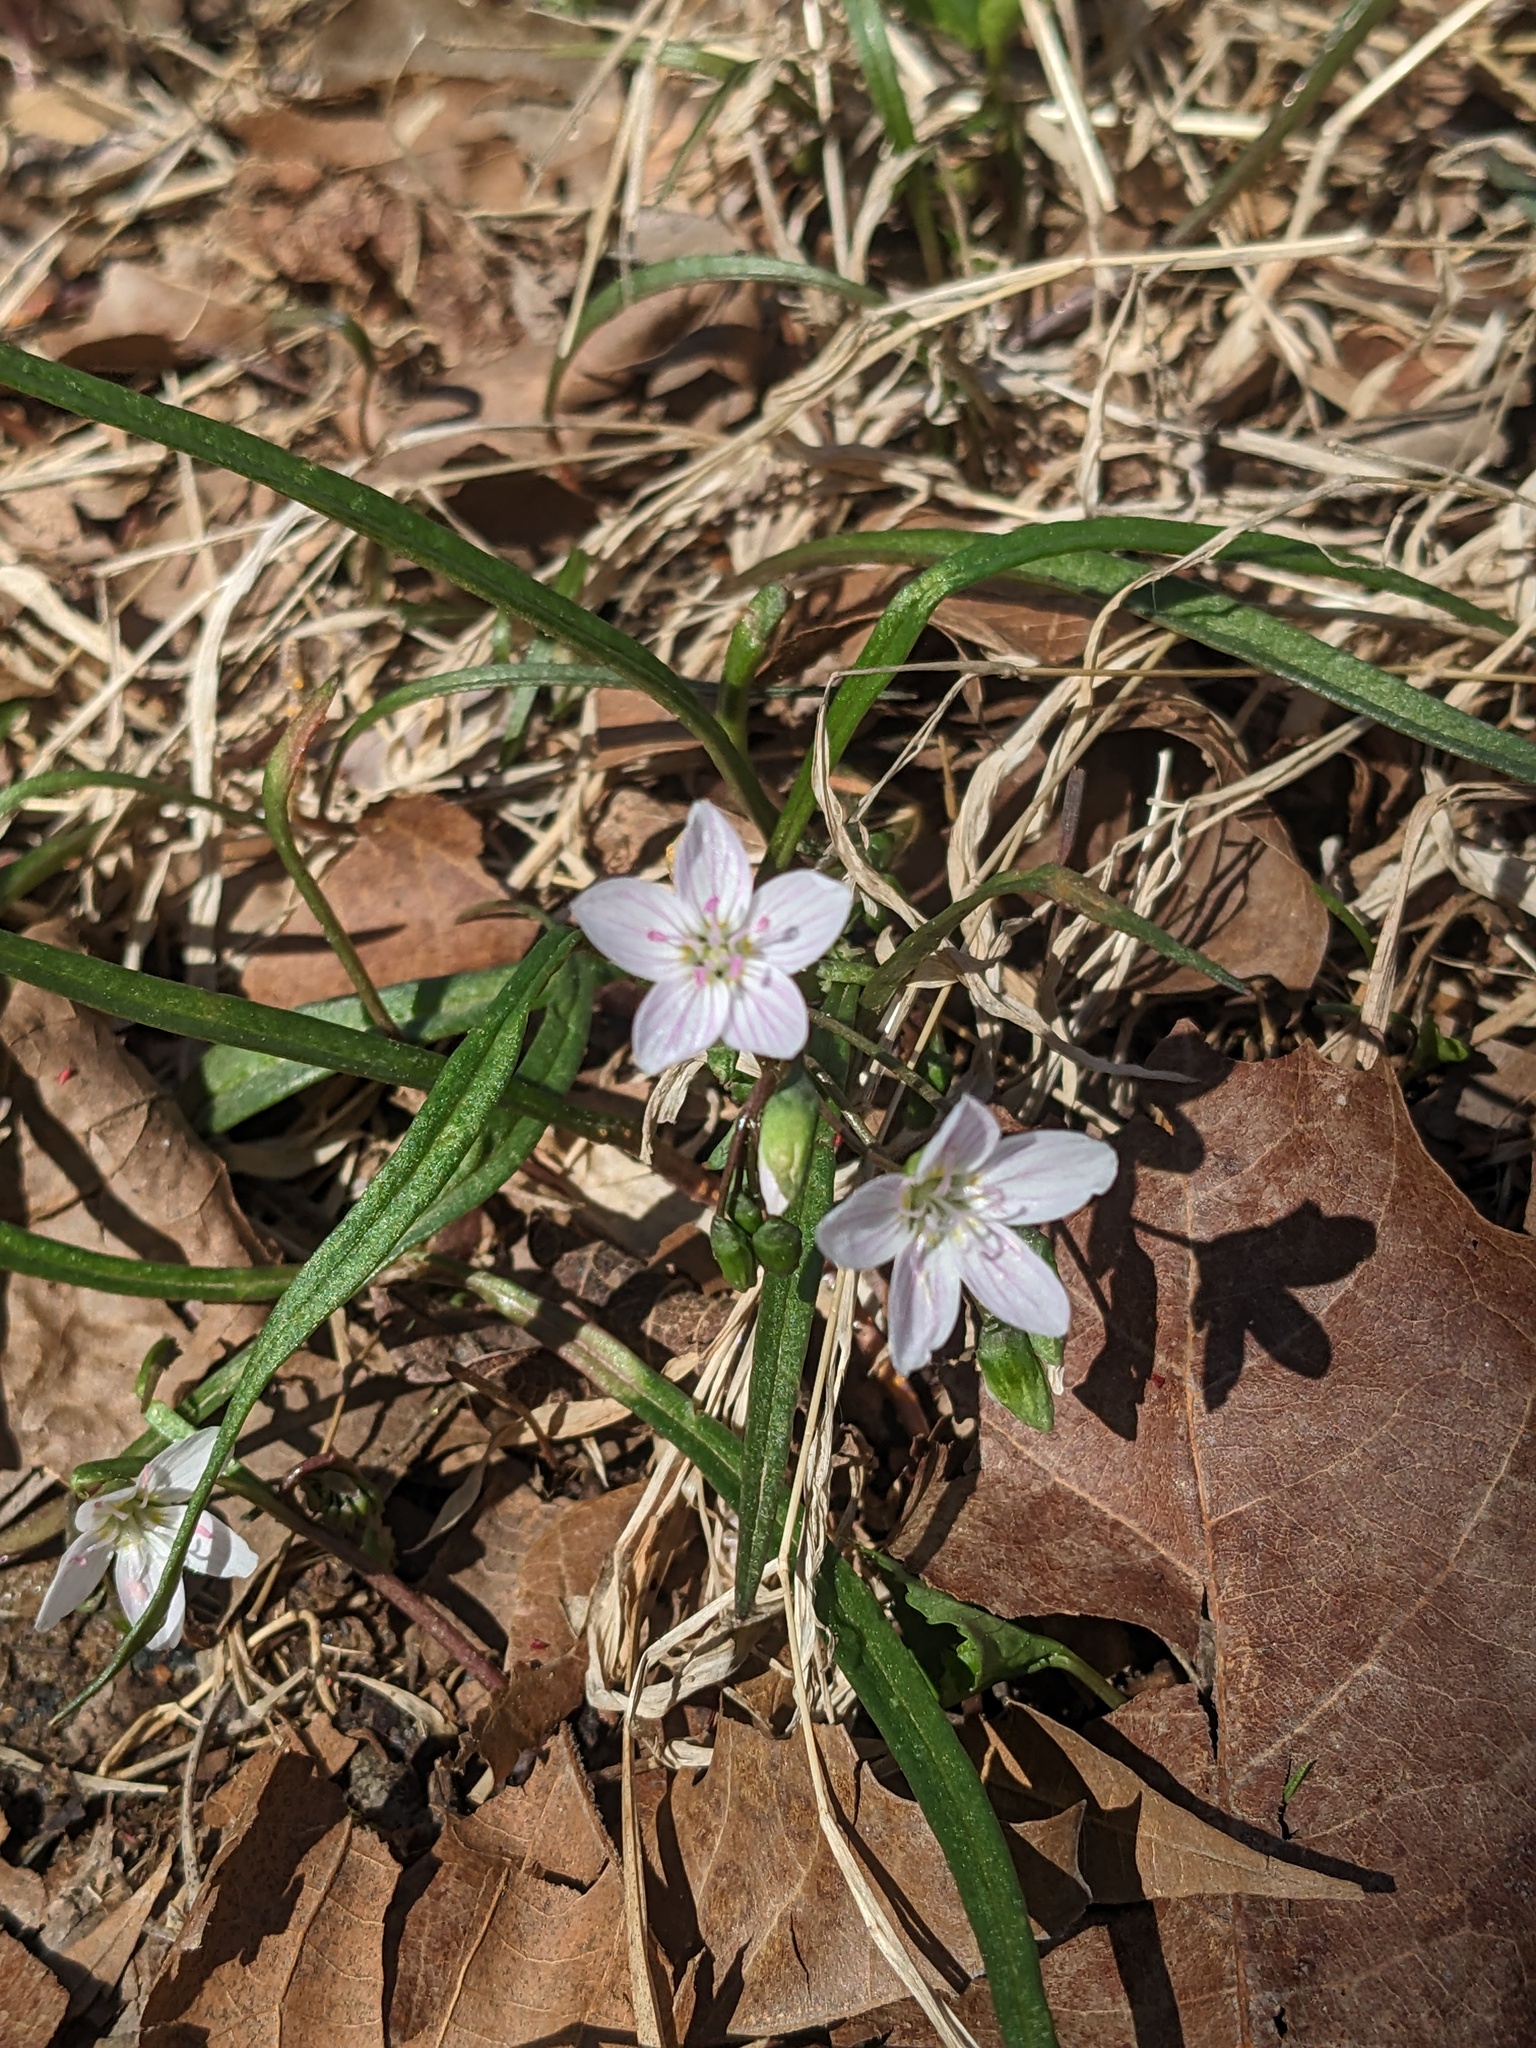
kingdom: Plantae
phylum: Tracheophyta
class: Magnoliopsida
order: Caryophyllales
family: Montiaceae
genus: Claytonia
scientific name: Claytonia virginica
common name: Virginia springbeauty
